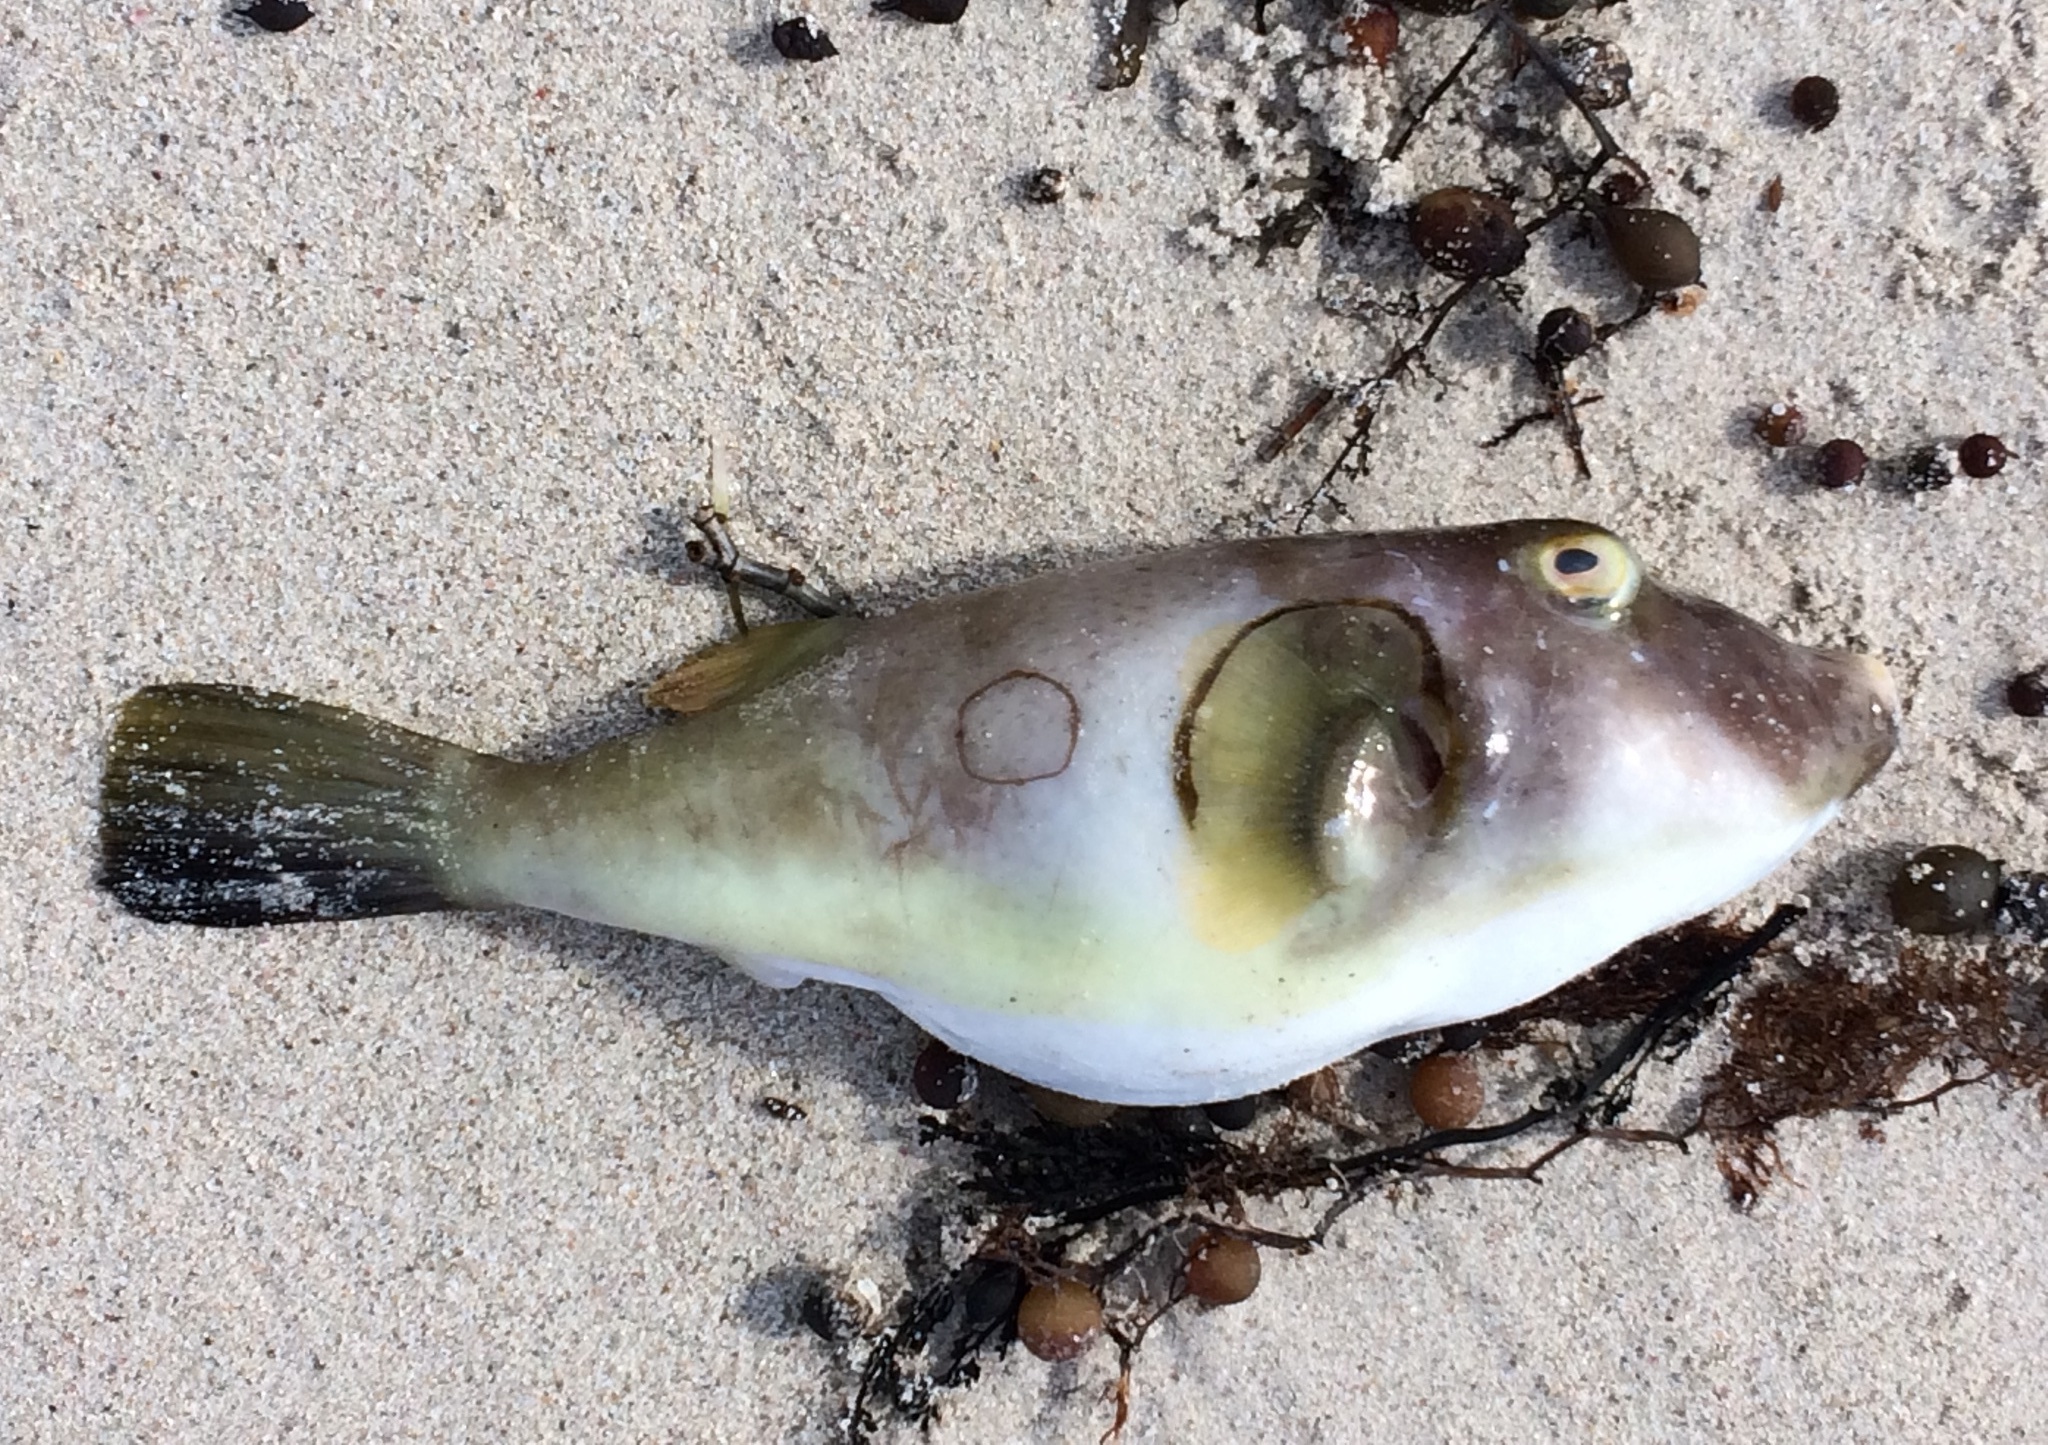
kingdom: Animalia
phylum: Chordata
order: Tetraodontiformes
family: Tetraodontidae
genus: Omegophora
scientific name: Omegophora armilla
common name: Ringed pufferfish
